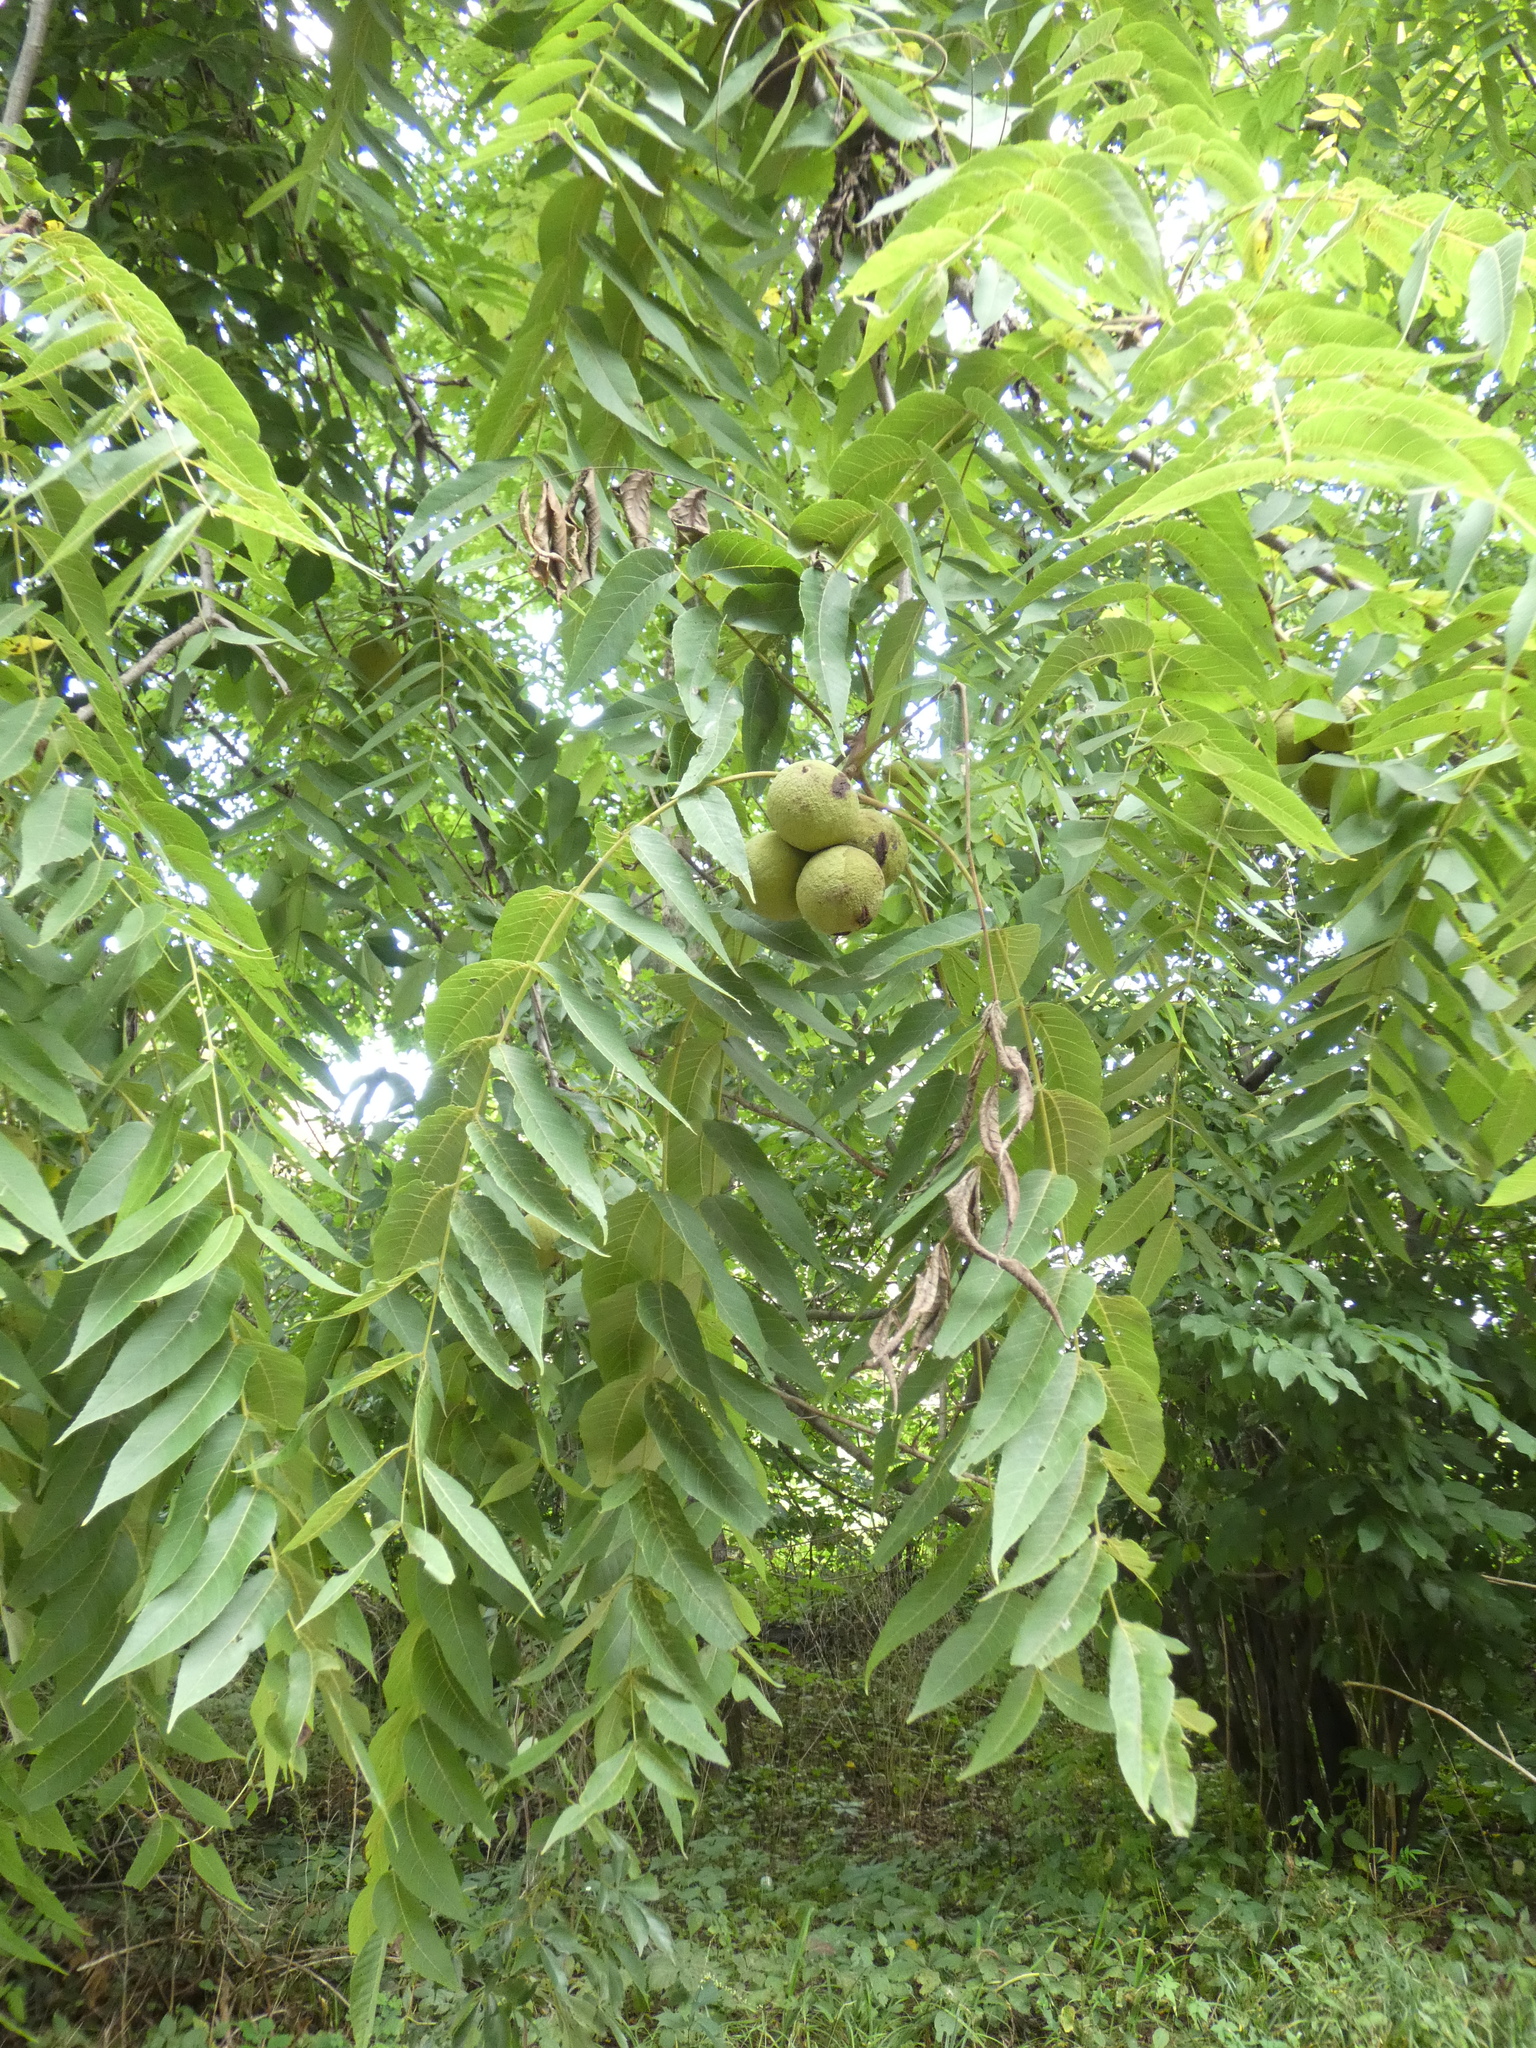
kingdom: Plantae
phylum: Tracheophyta
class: Magnoliopsida
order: Fagales
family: Juglandaceae
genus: Juglans
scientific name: Juglans nigra
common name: Black walnut
